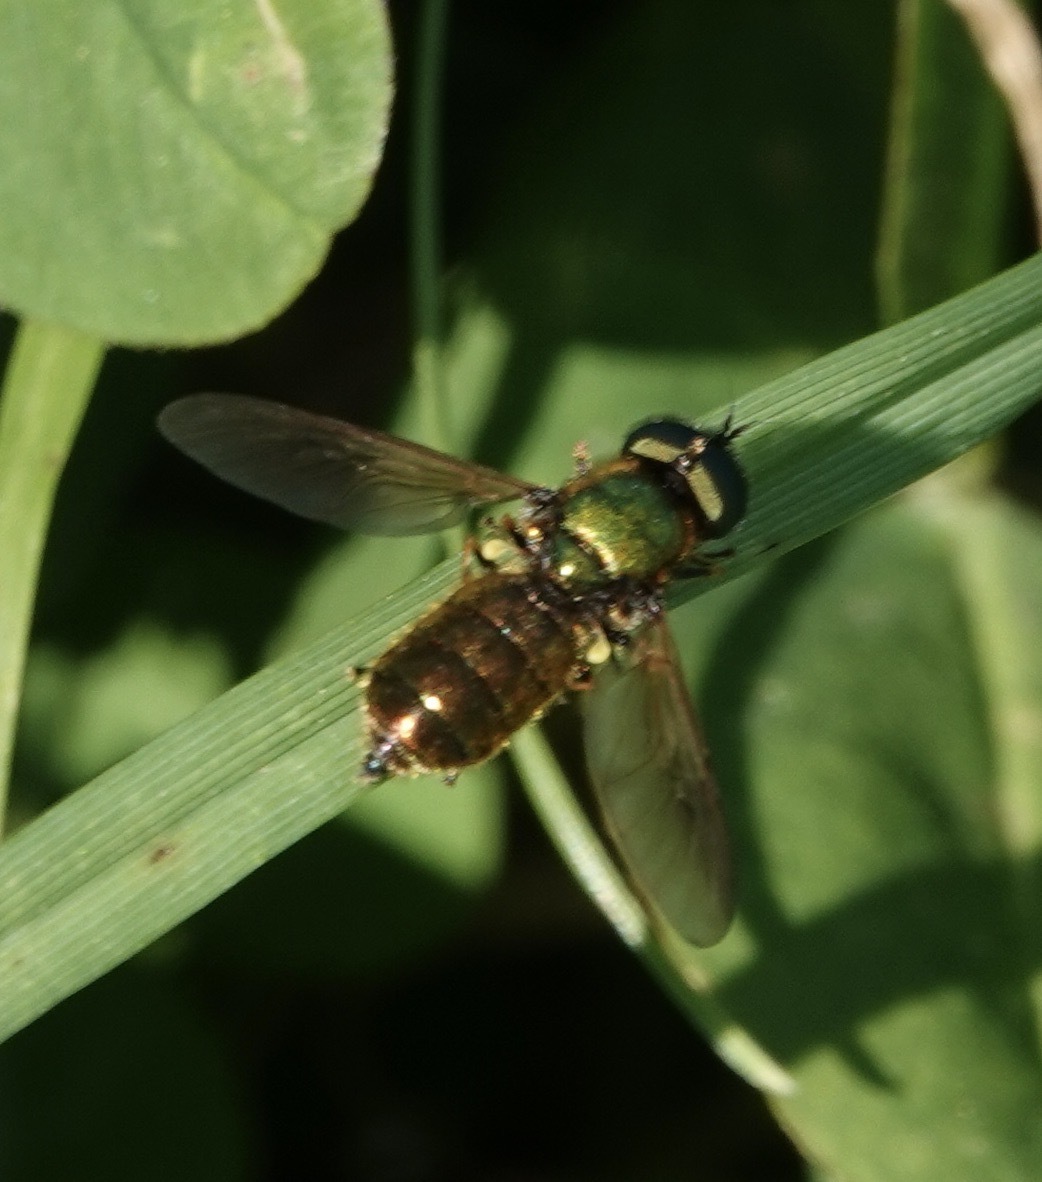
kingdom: Animalia
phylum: Arthropoda
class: Insecta
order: Diptera
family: Stratiomyidae
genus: Chloromyia
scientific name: Chloromyia formosa
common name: Soldier fly
